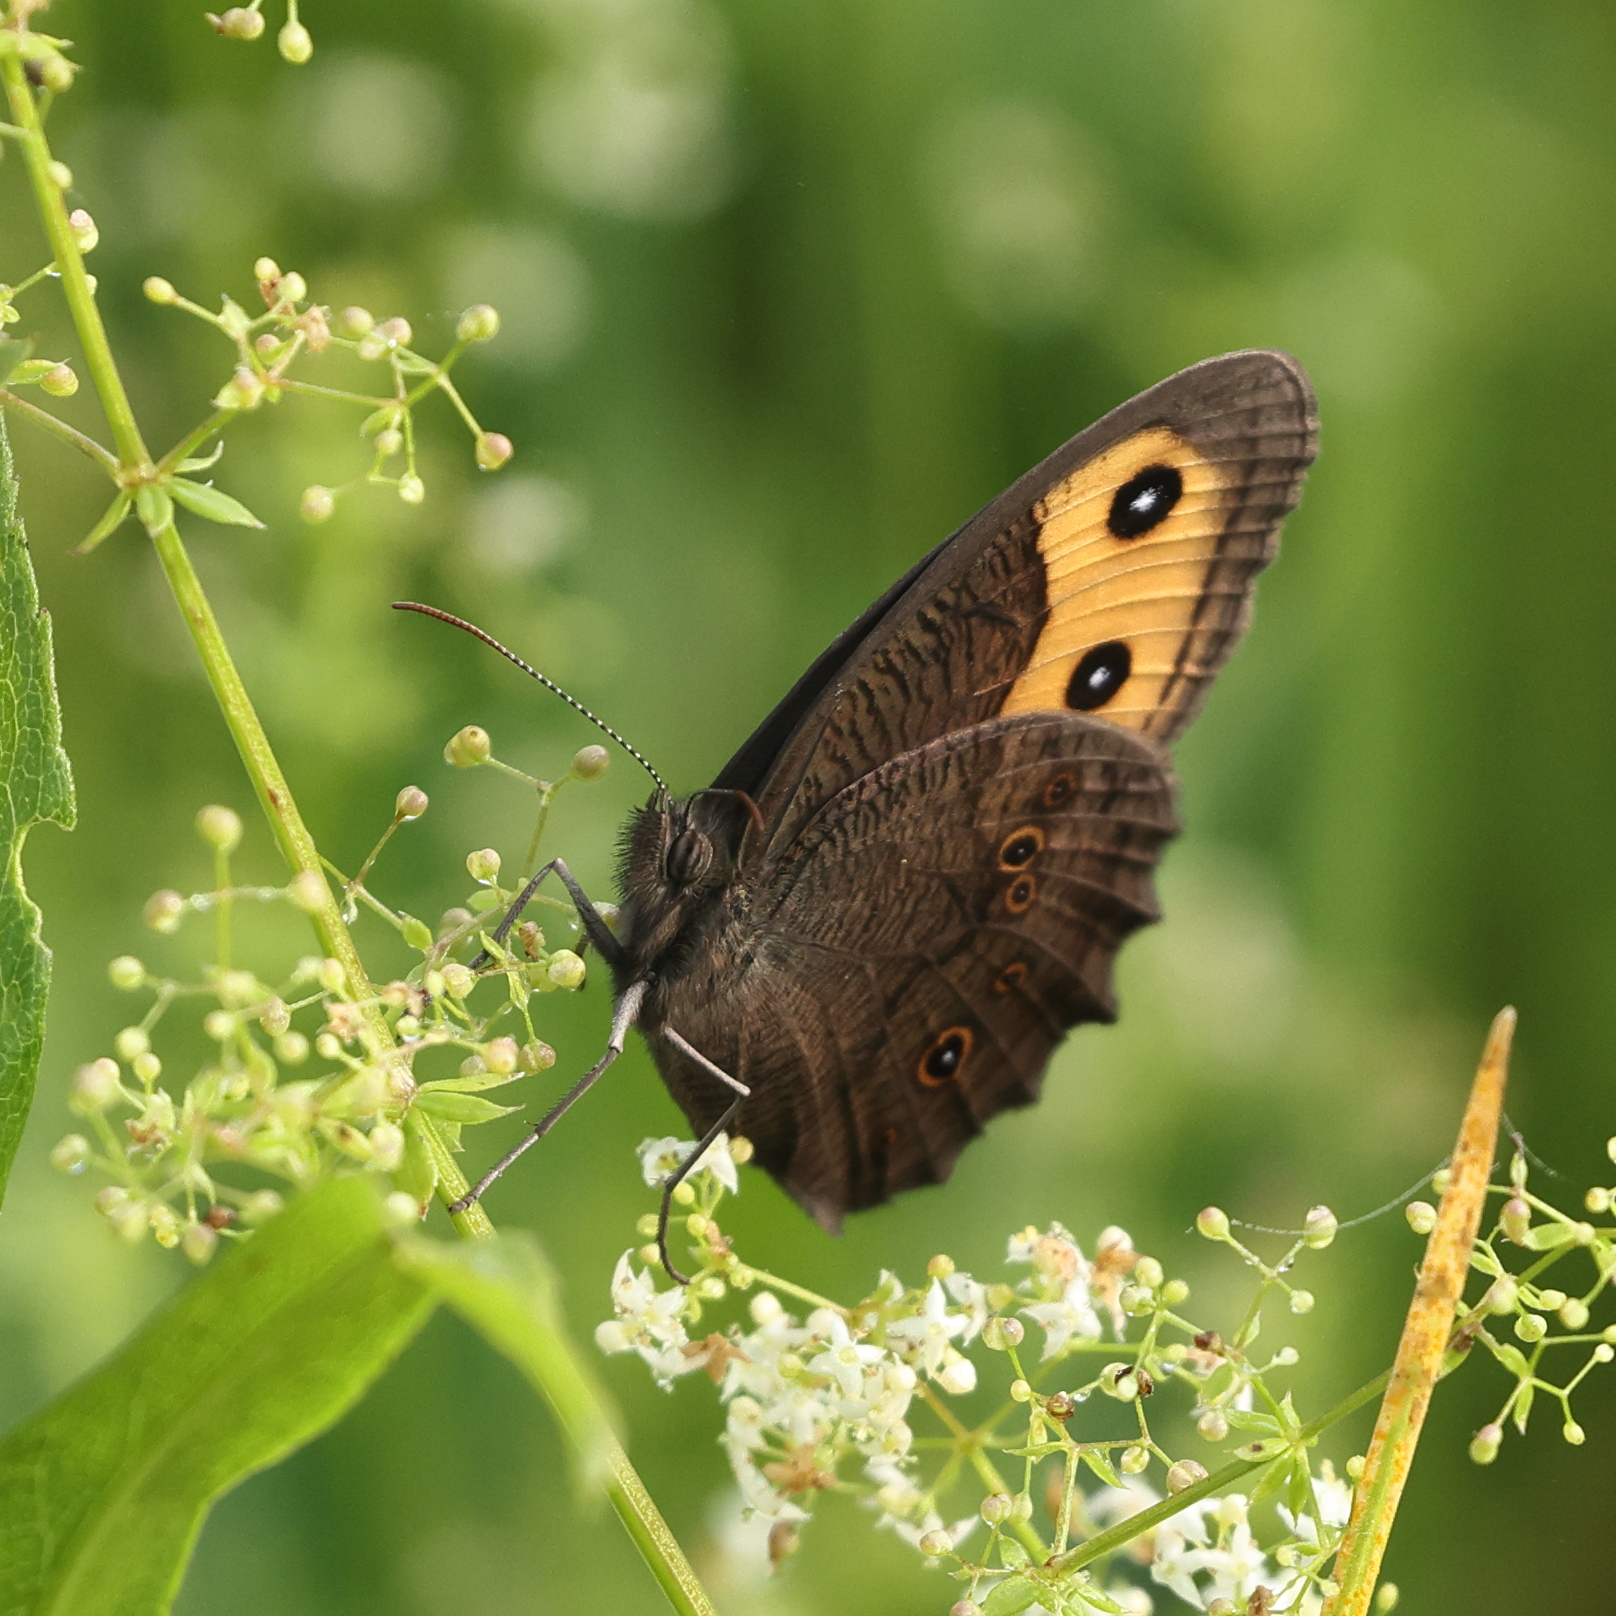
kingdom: Animalia
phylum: Arthropoda
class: Insecta
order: Lepidoptera
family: Nymphalidae
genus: Cercyonis
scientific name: Cercyonis pegala
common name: Common wood-nymph
